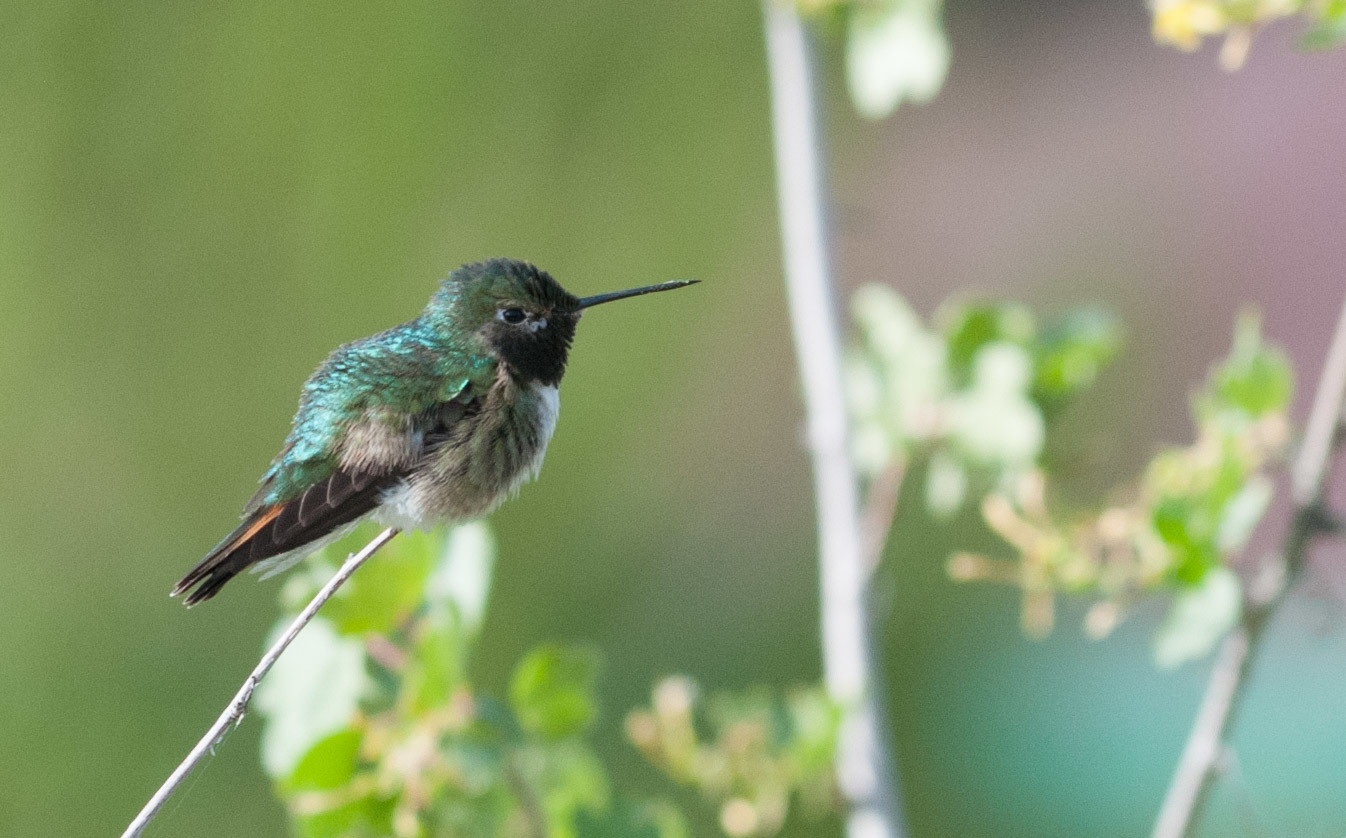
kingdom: Animalia
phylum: Chordata
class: Aves
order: Apodiformes
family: Trochilidae
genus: Selasphorus
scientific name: Selasphorus platycercus
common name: Broad-tailed hummingbird
